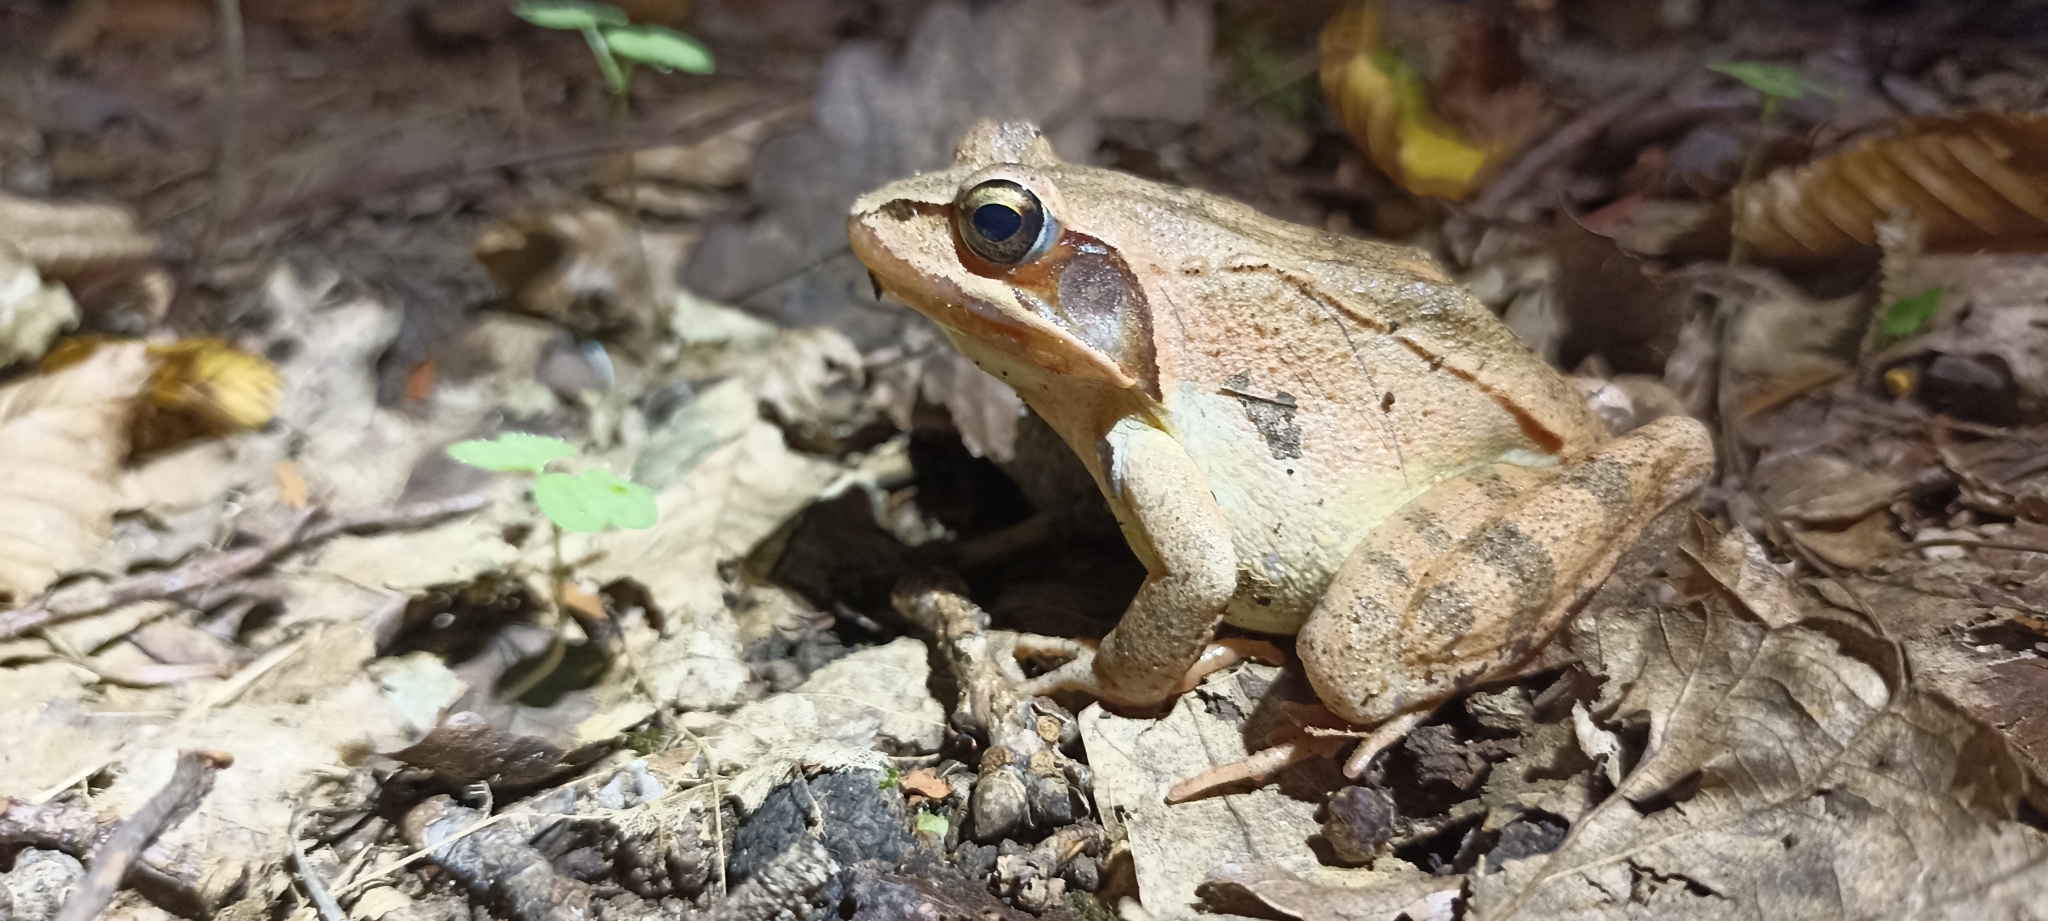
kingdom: Animalia
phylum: Chordata
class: Amphibia
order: Anura
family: Ranidae
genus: Rana
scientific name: Rana dalmatina
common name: Agile frog
